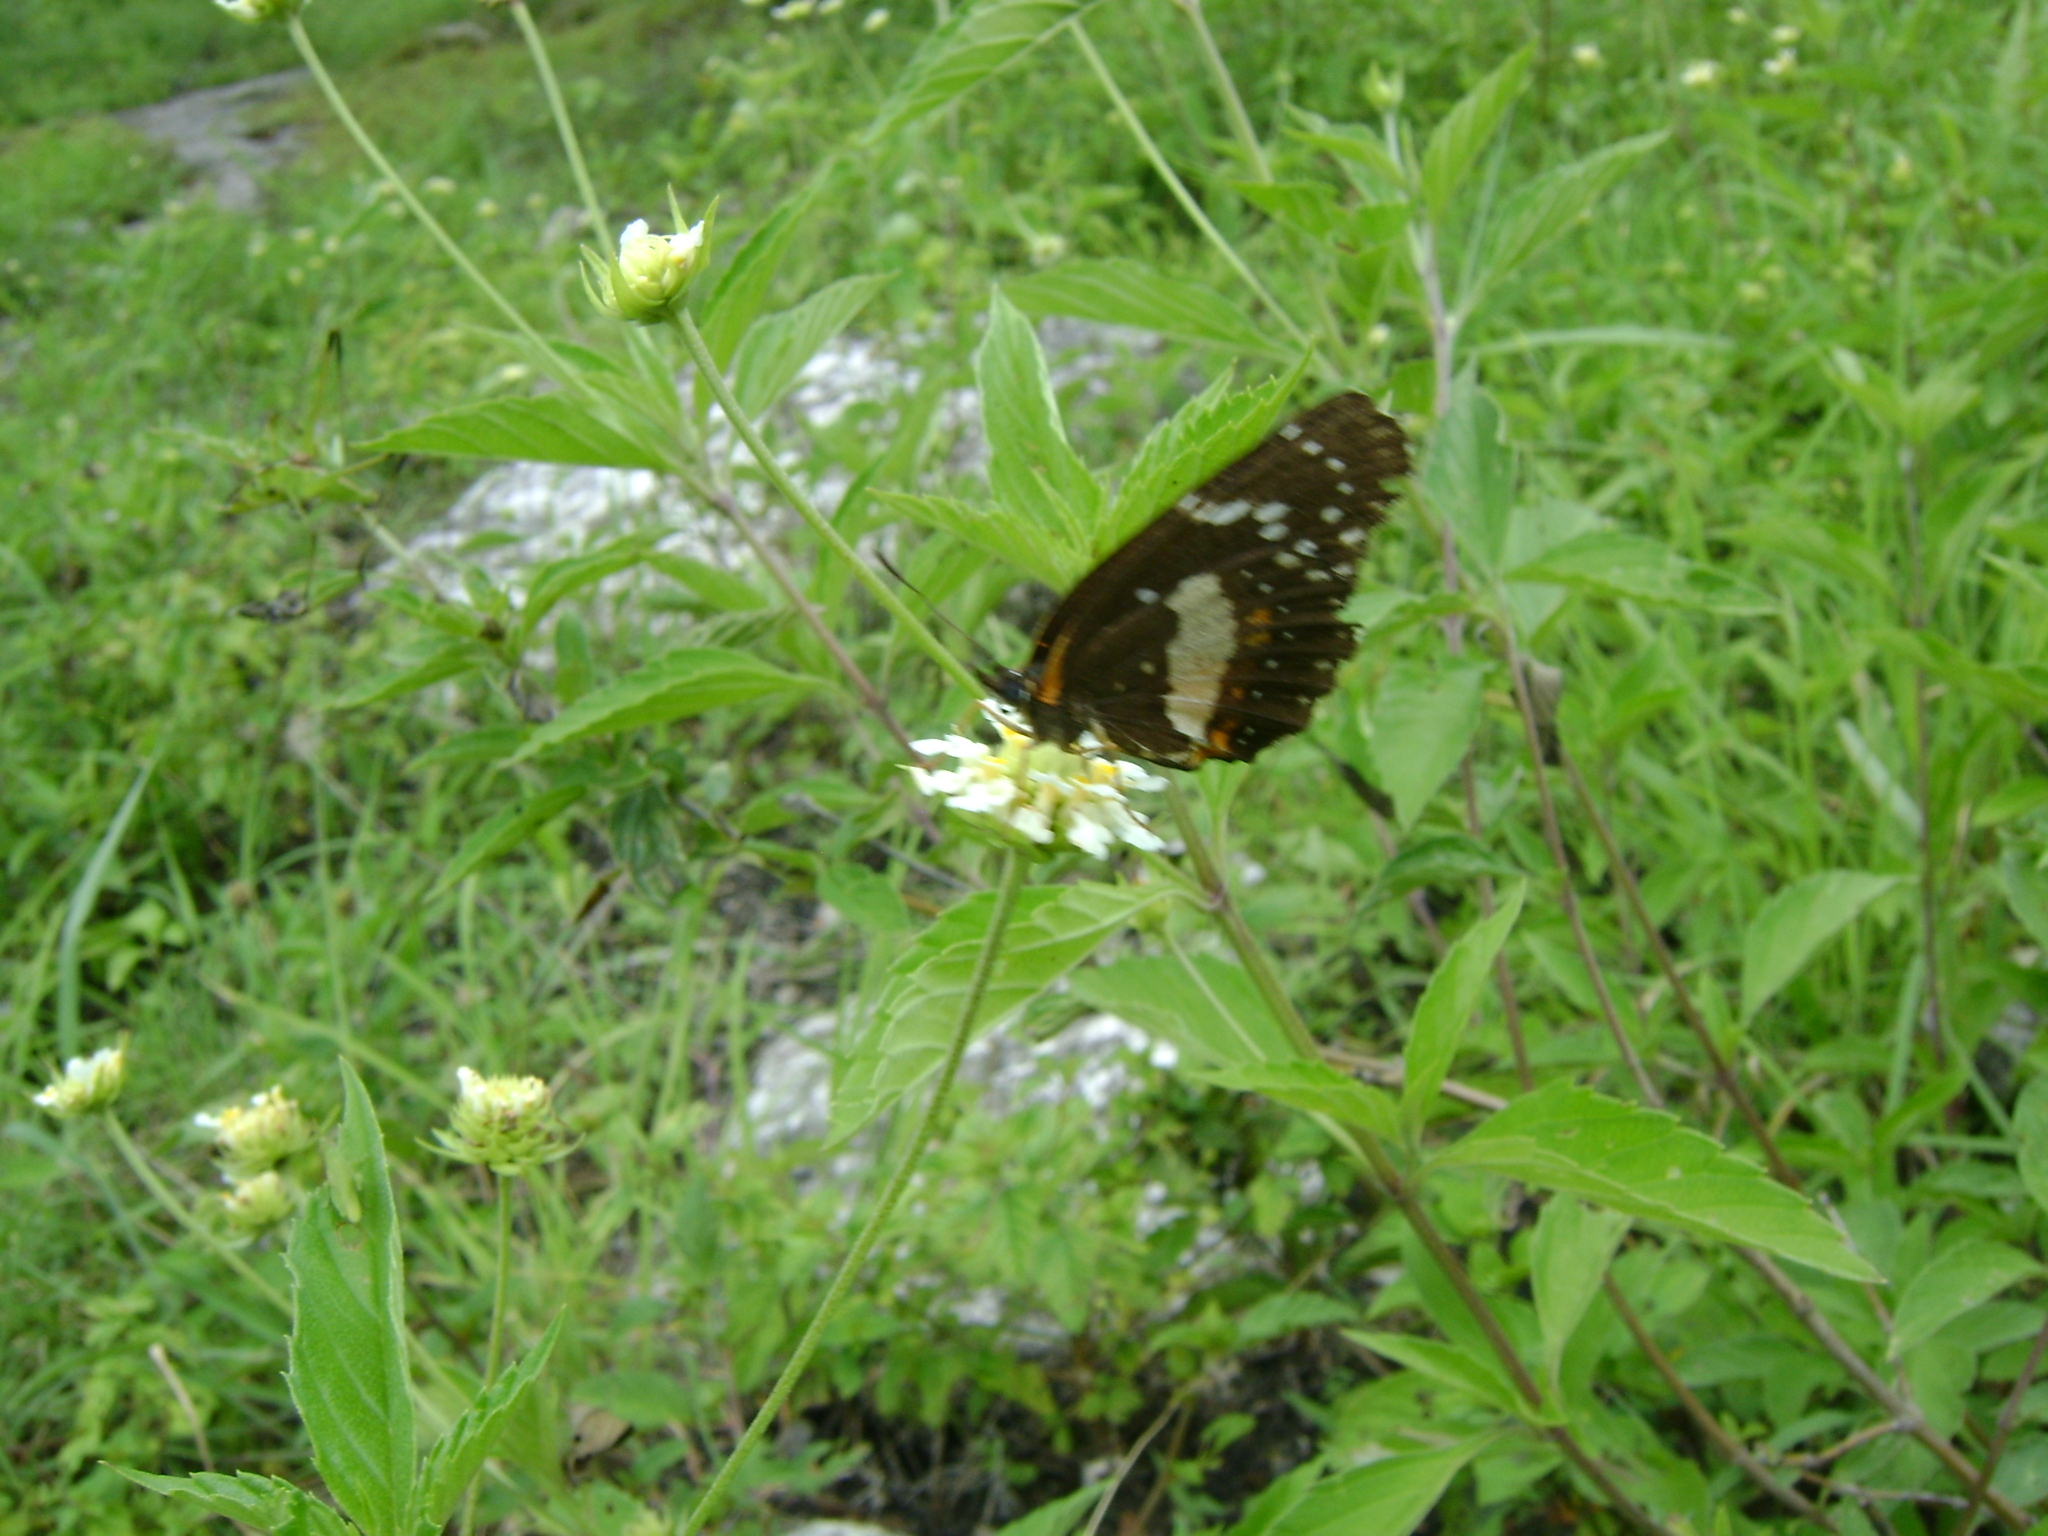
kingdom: Animalia
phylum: Arthropoda
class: Insecta
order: Lepidoptera
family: Nymphalidae
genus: Chlosyne
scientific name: Chlosyne lacinia
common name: Bordered patch
